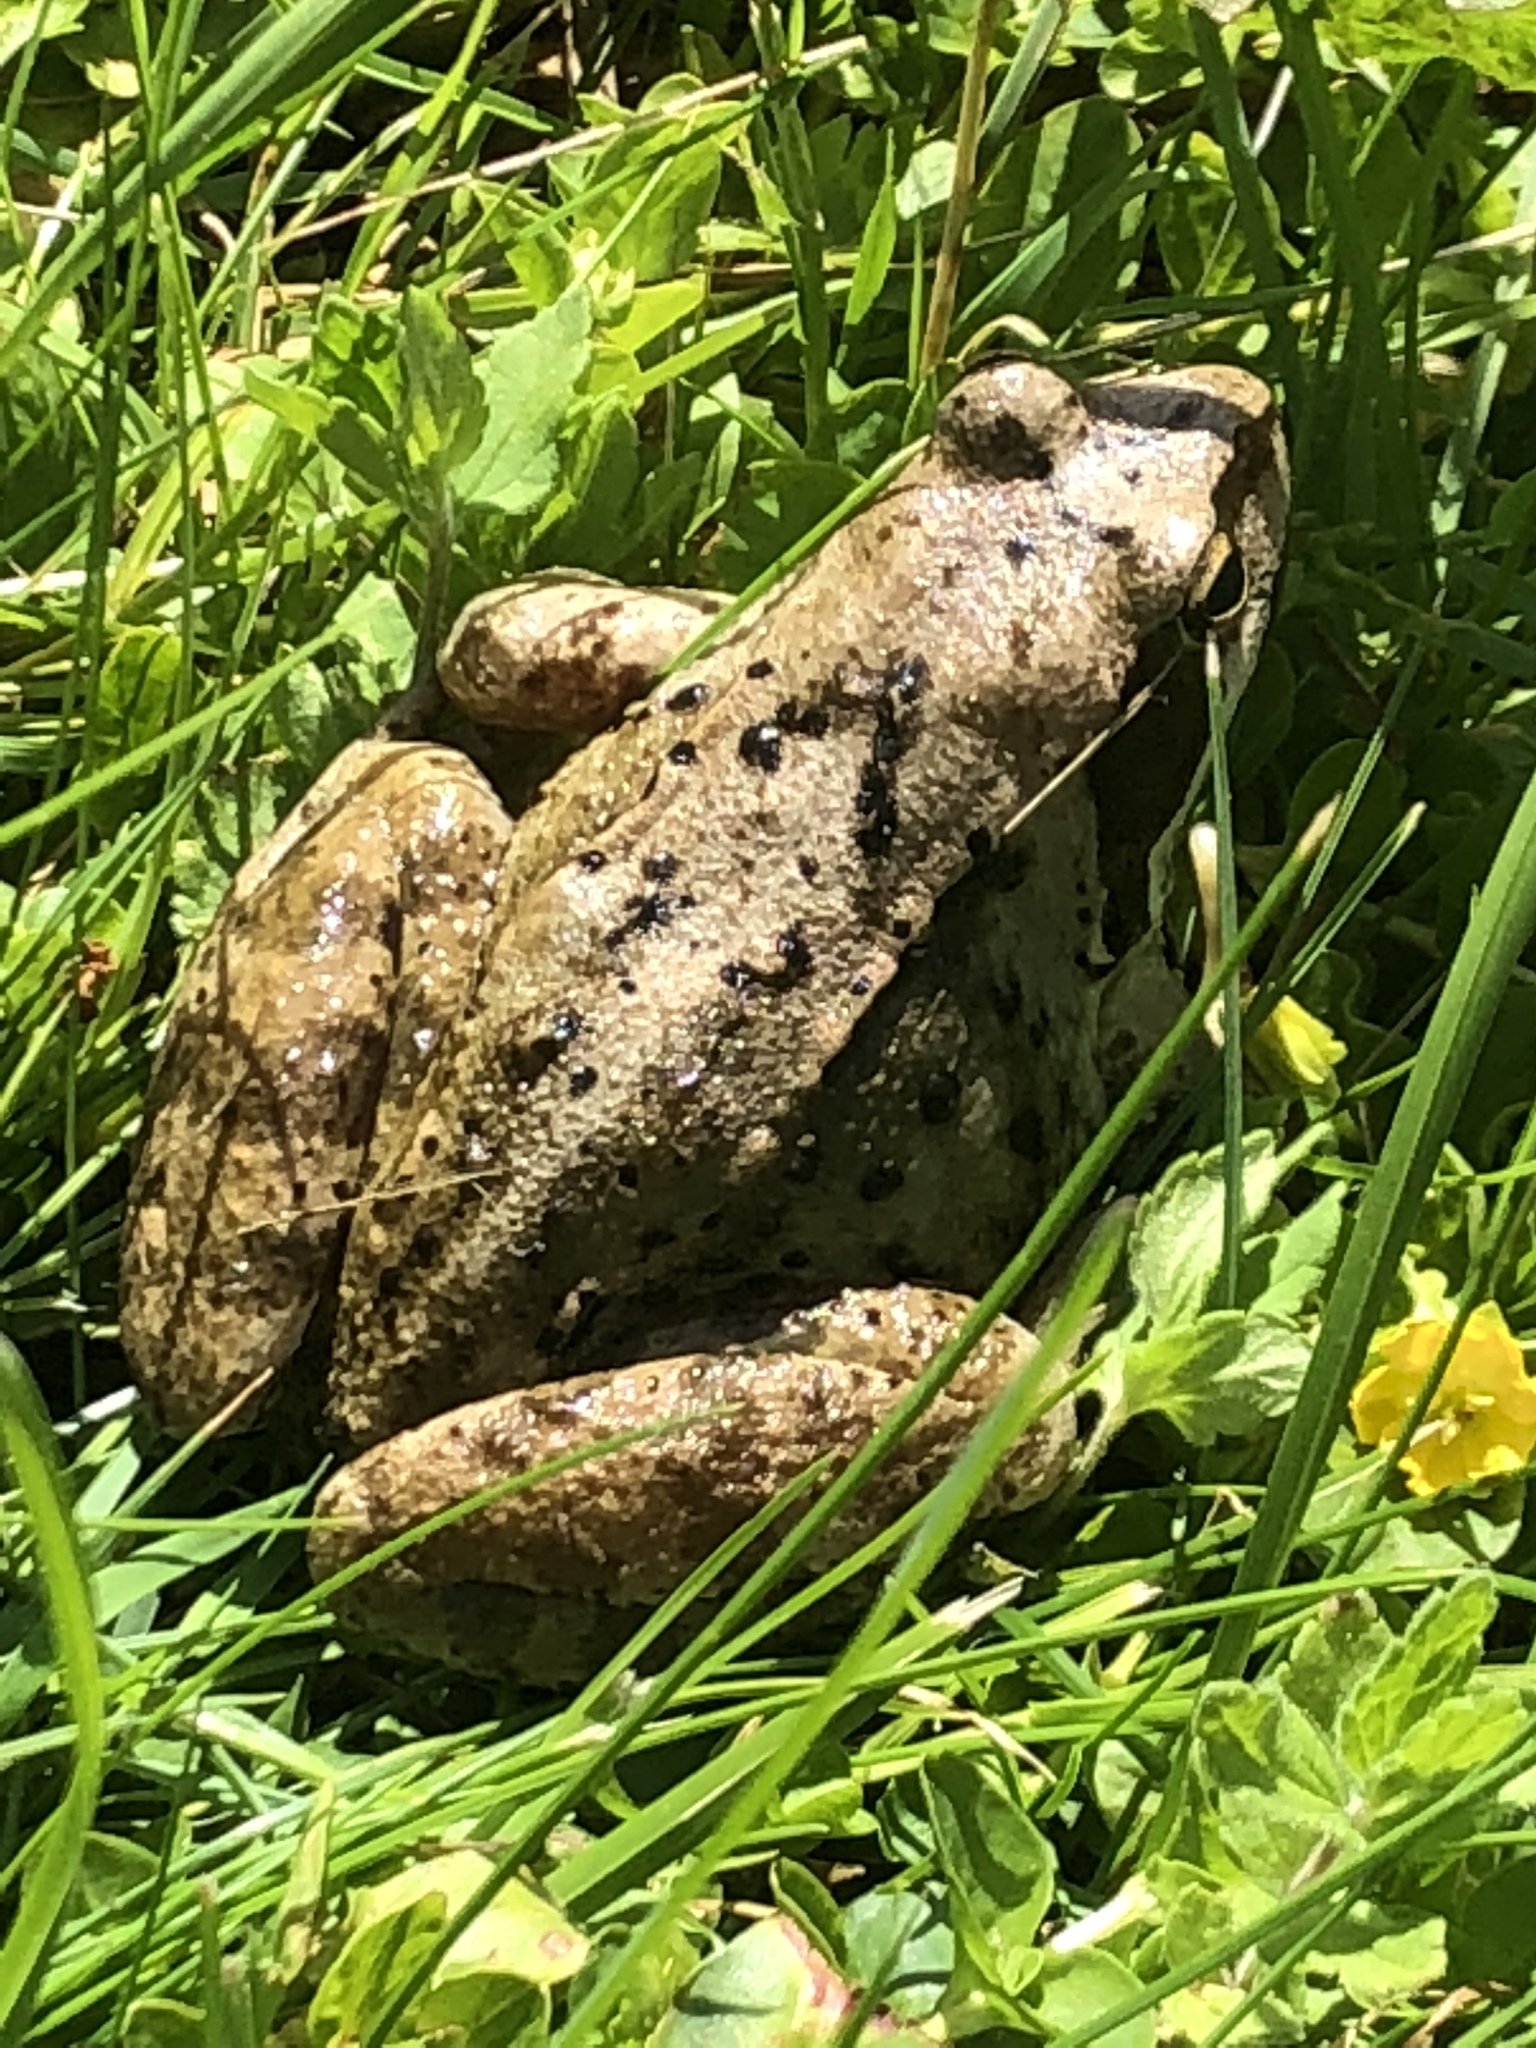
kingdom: Animalia
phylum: Chordata
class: Amphibia
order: Anura
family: Ranidae
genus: Rana
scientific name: Rana temporaria
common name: Common frog
